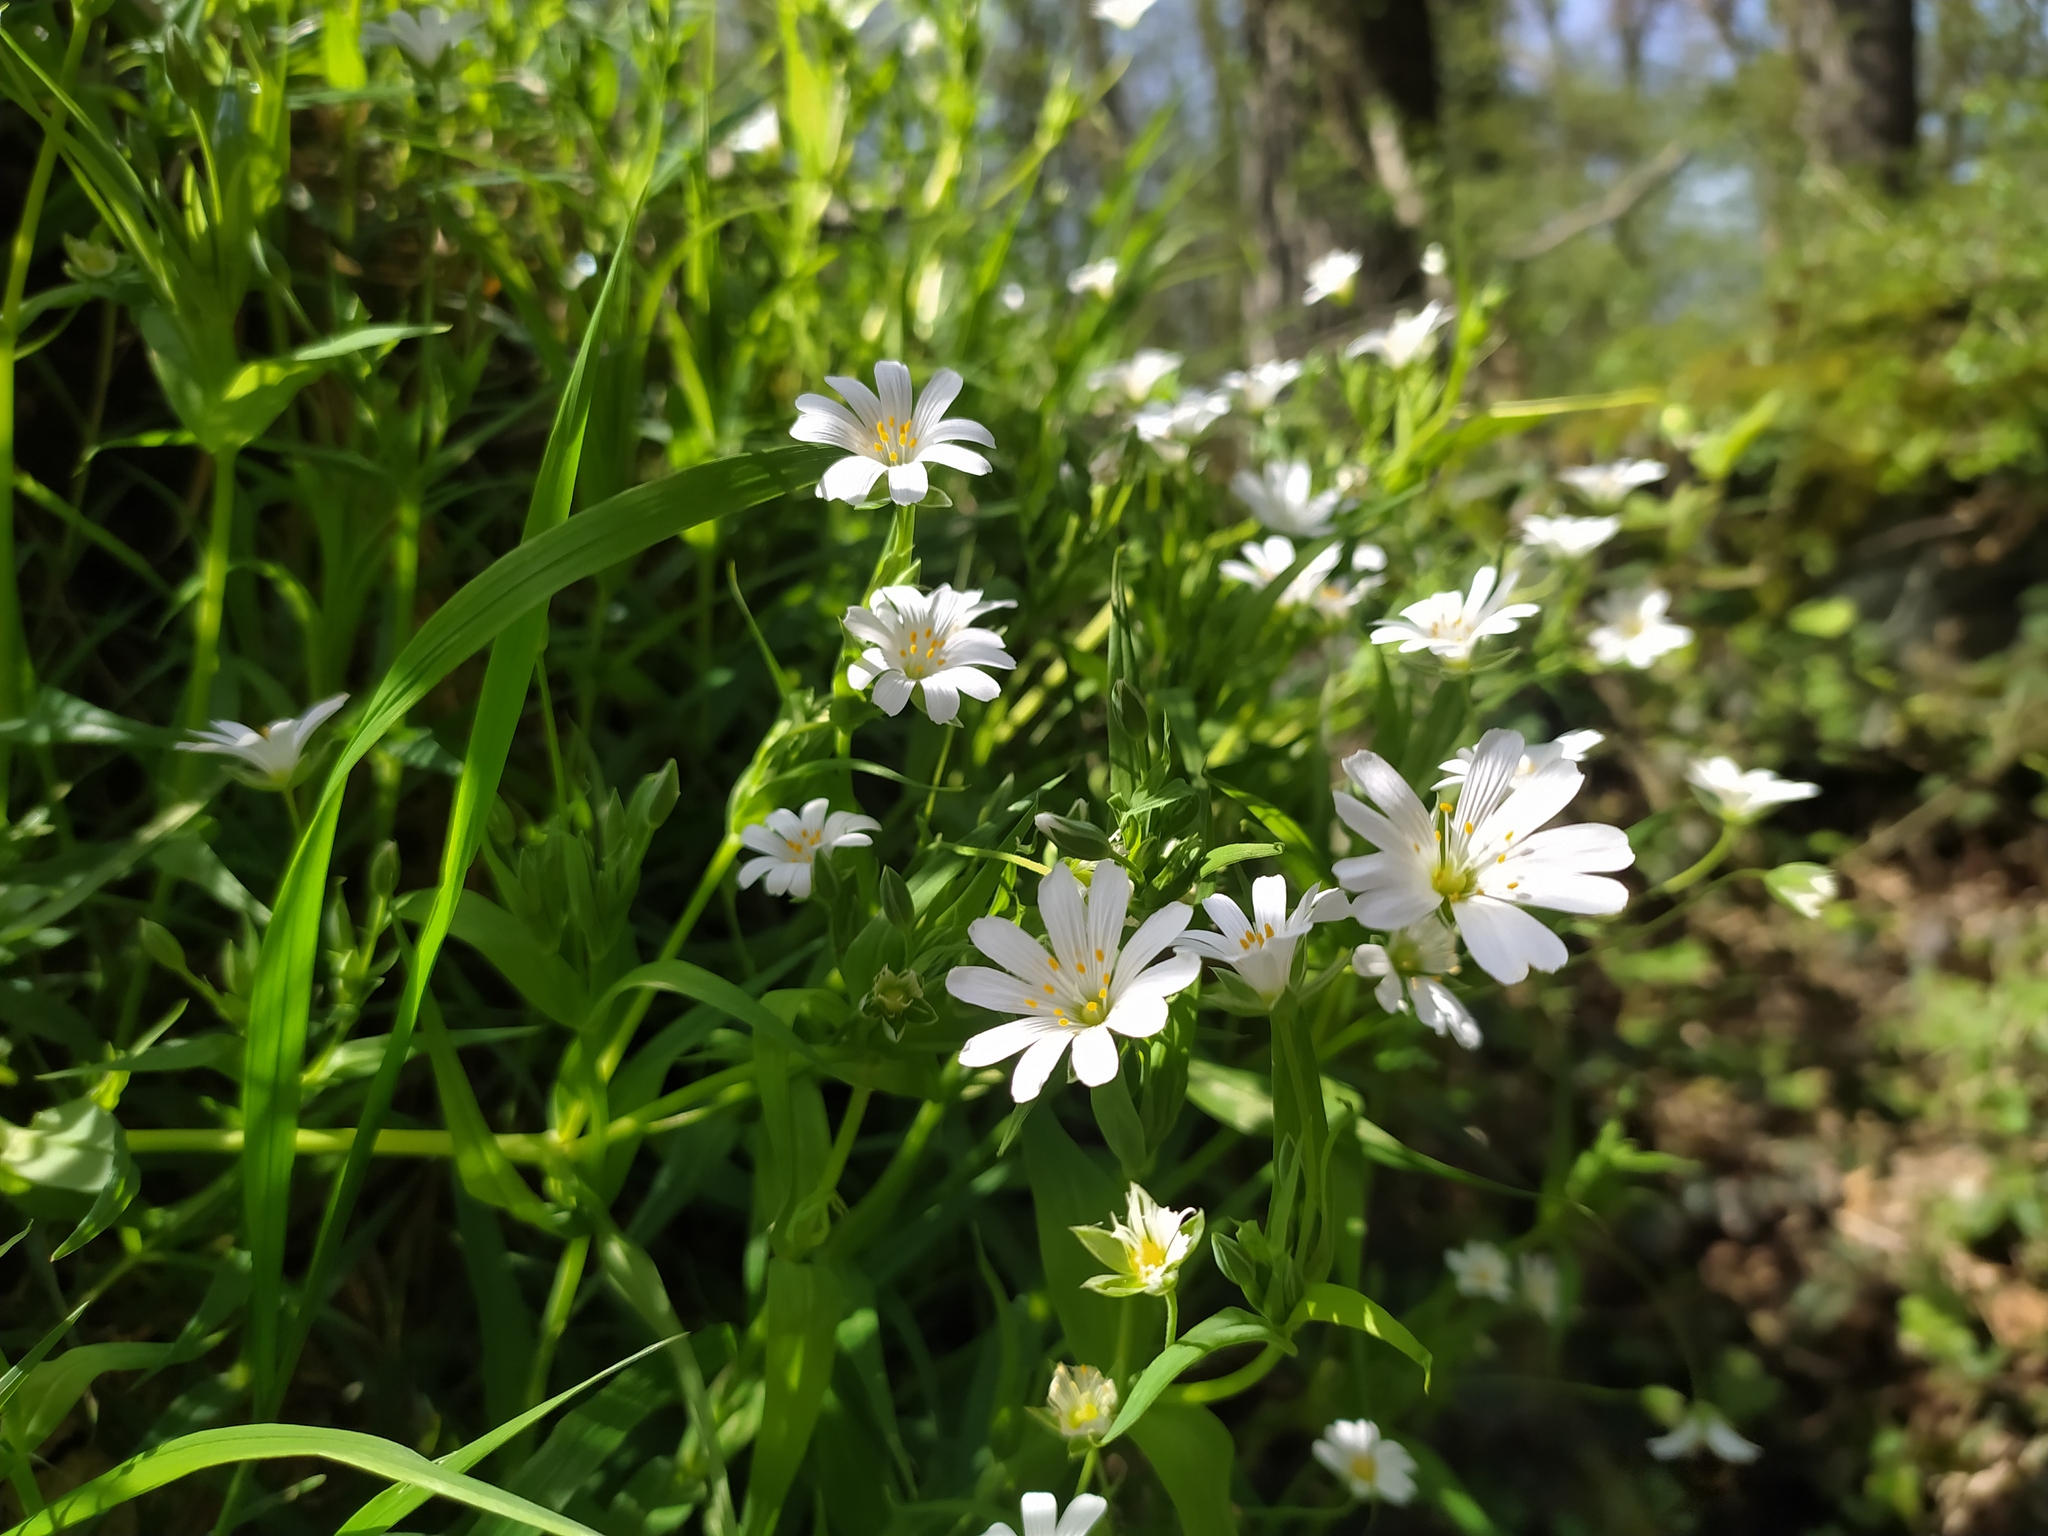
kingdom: Plantae
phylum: Tracheophyta
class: Magnoliopsida
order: Caryophyllales
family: Caryophyllaceae
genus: Rabelera
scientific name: Rabelera holostea
